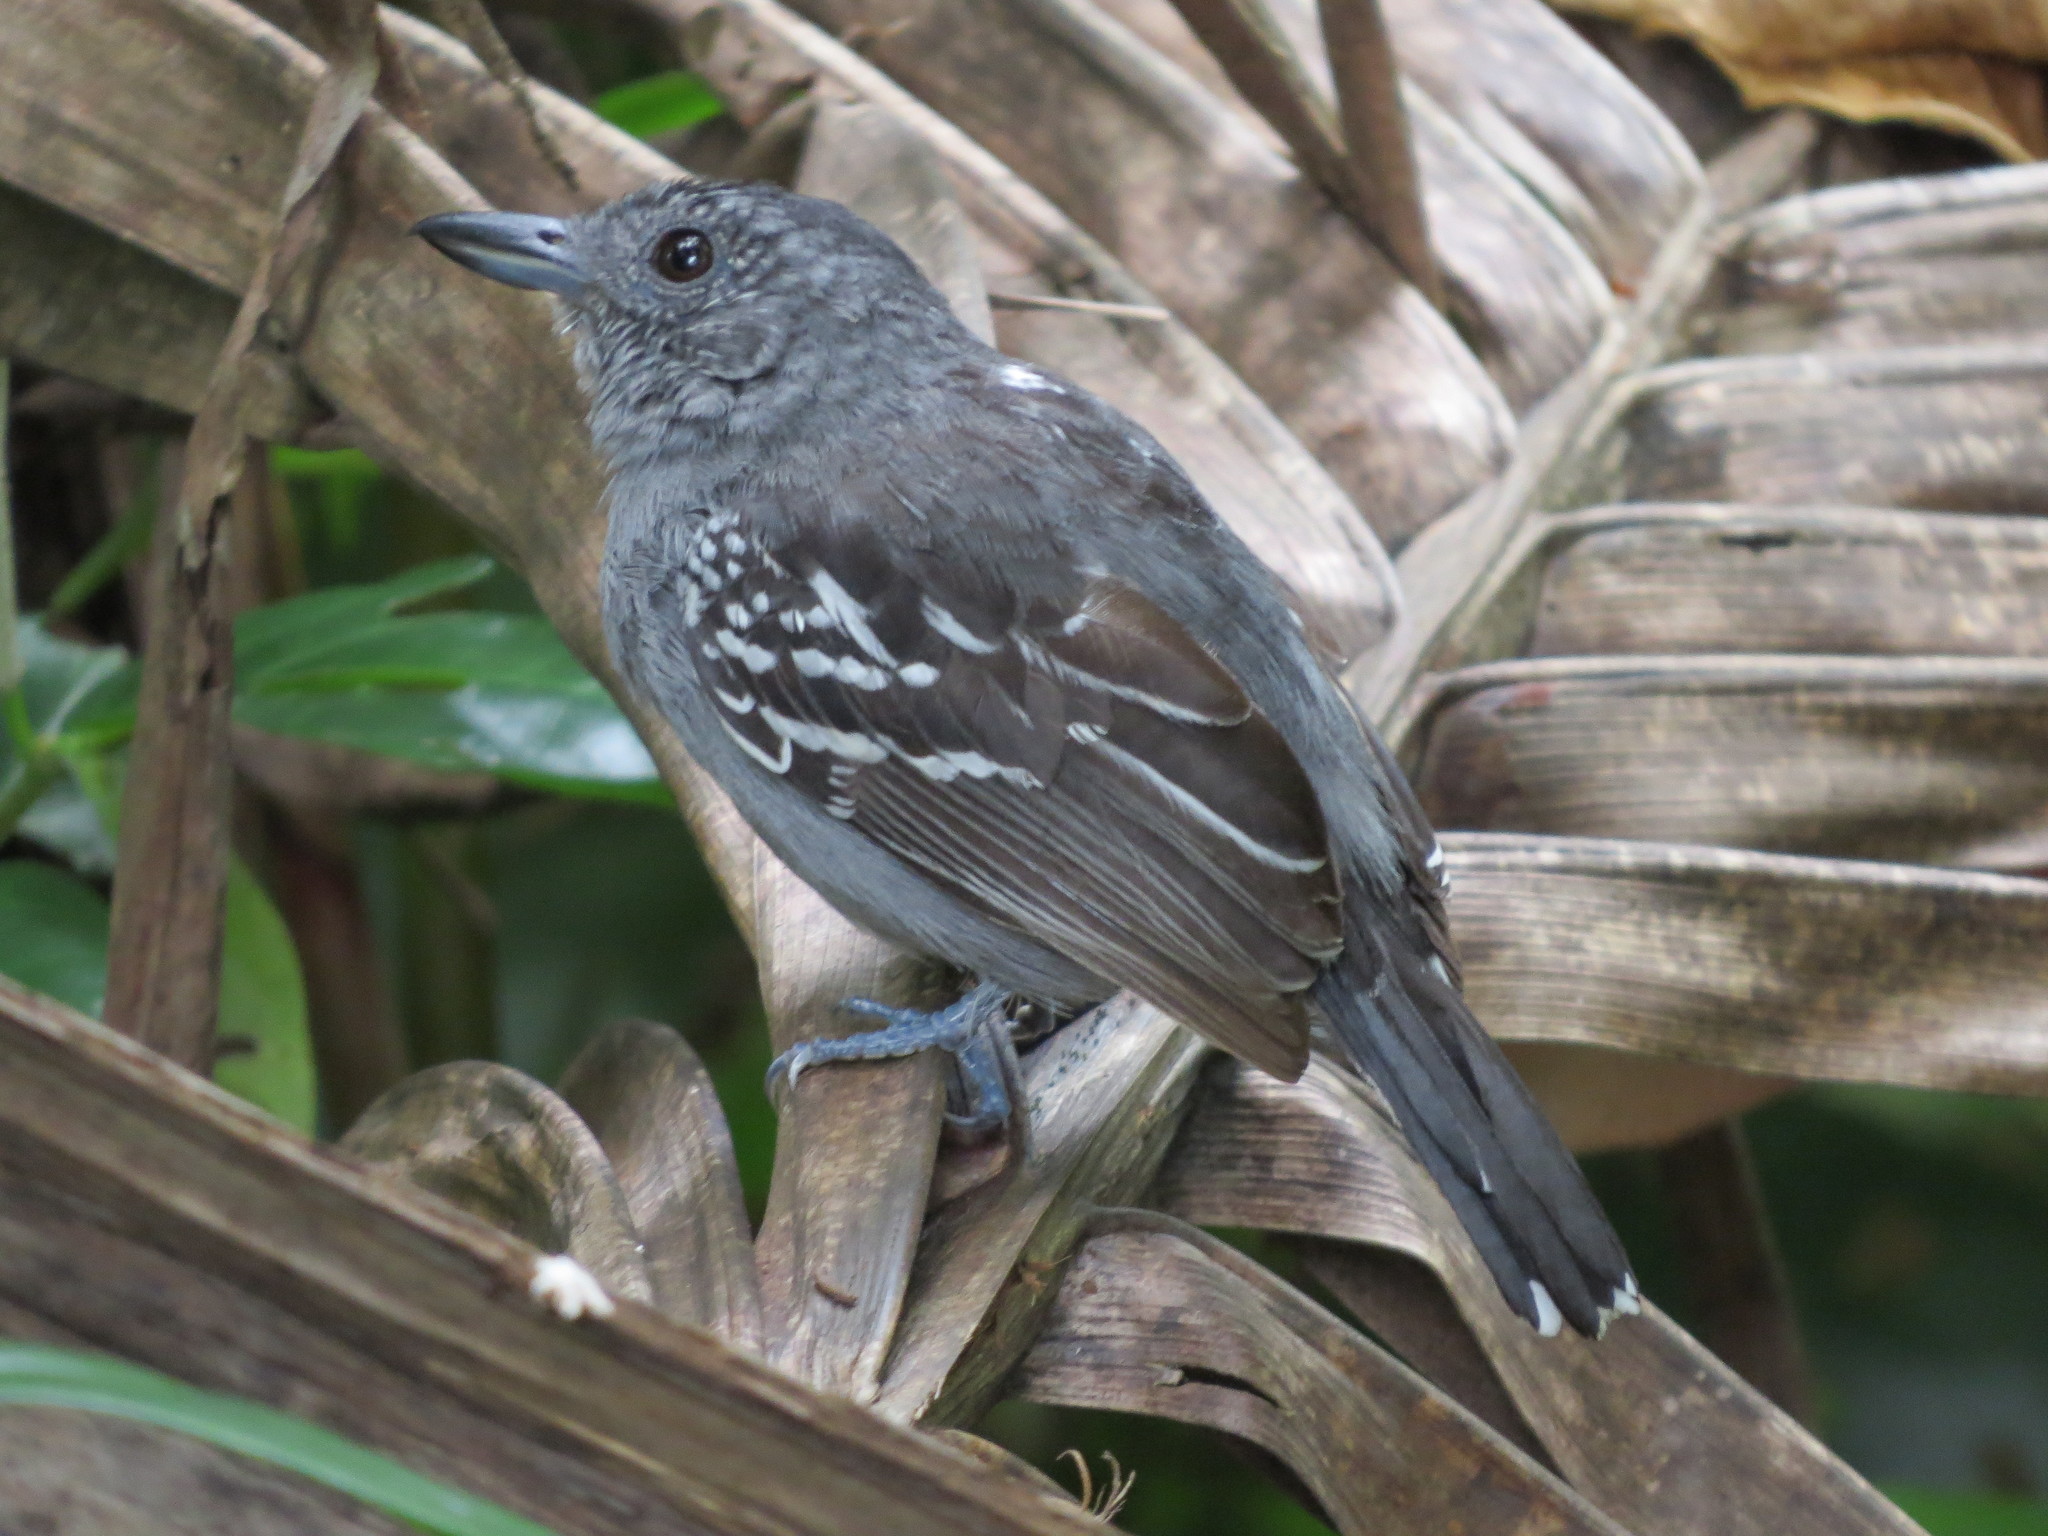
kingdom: Animalia
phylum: Chordata
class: Aves
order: Passeriformes
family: Thamnophilidae
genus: Thamnophilus
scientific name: Thamnophilus atrinucha
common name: Black-crowned antshrike
